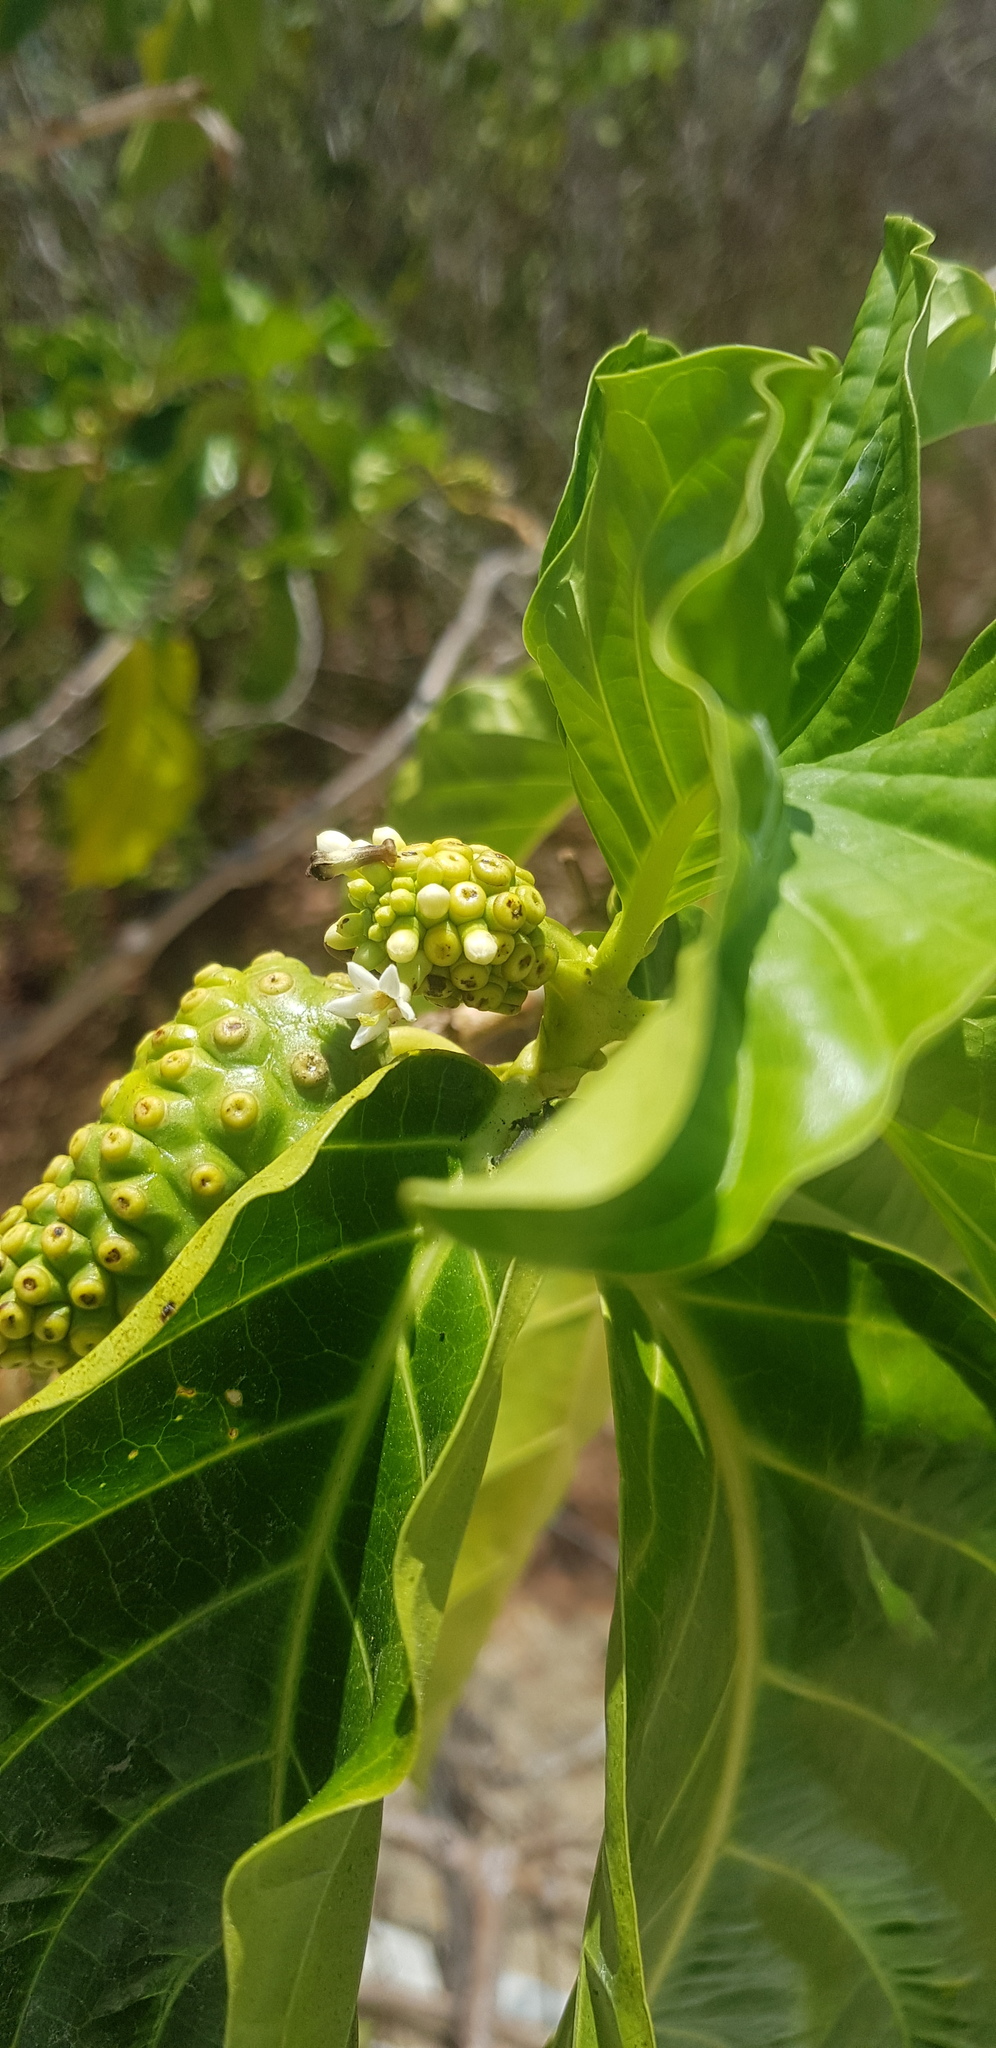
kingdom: Plantae
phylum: Tracheophyta
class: Magnoliopsida
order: Gentianales
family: Rubiaceae
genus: Morinda
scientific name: Morinda citrifolia
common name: Indian-mulberry
